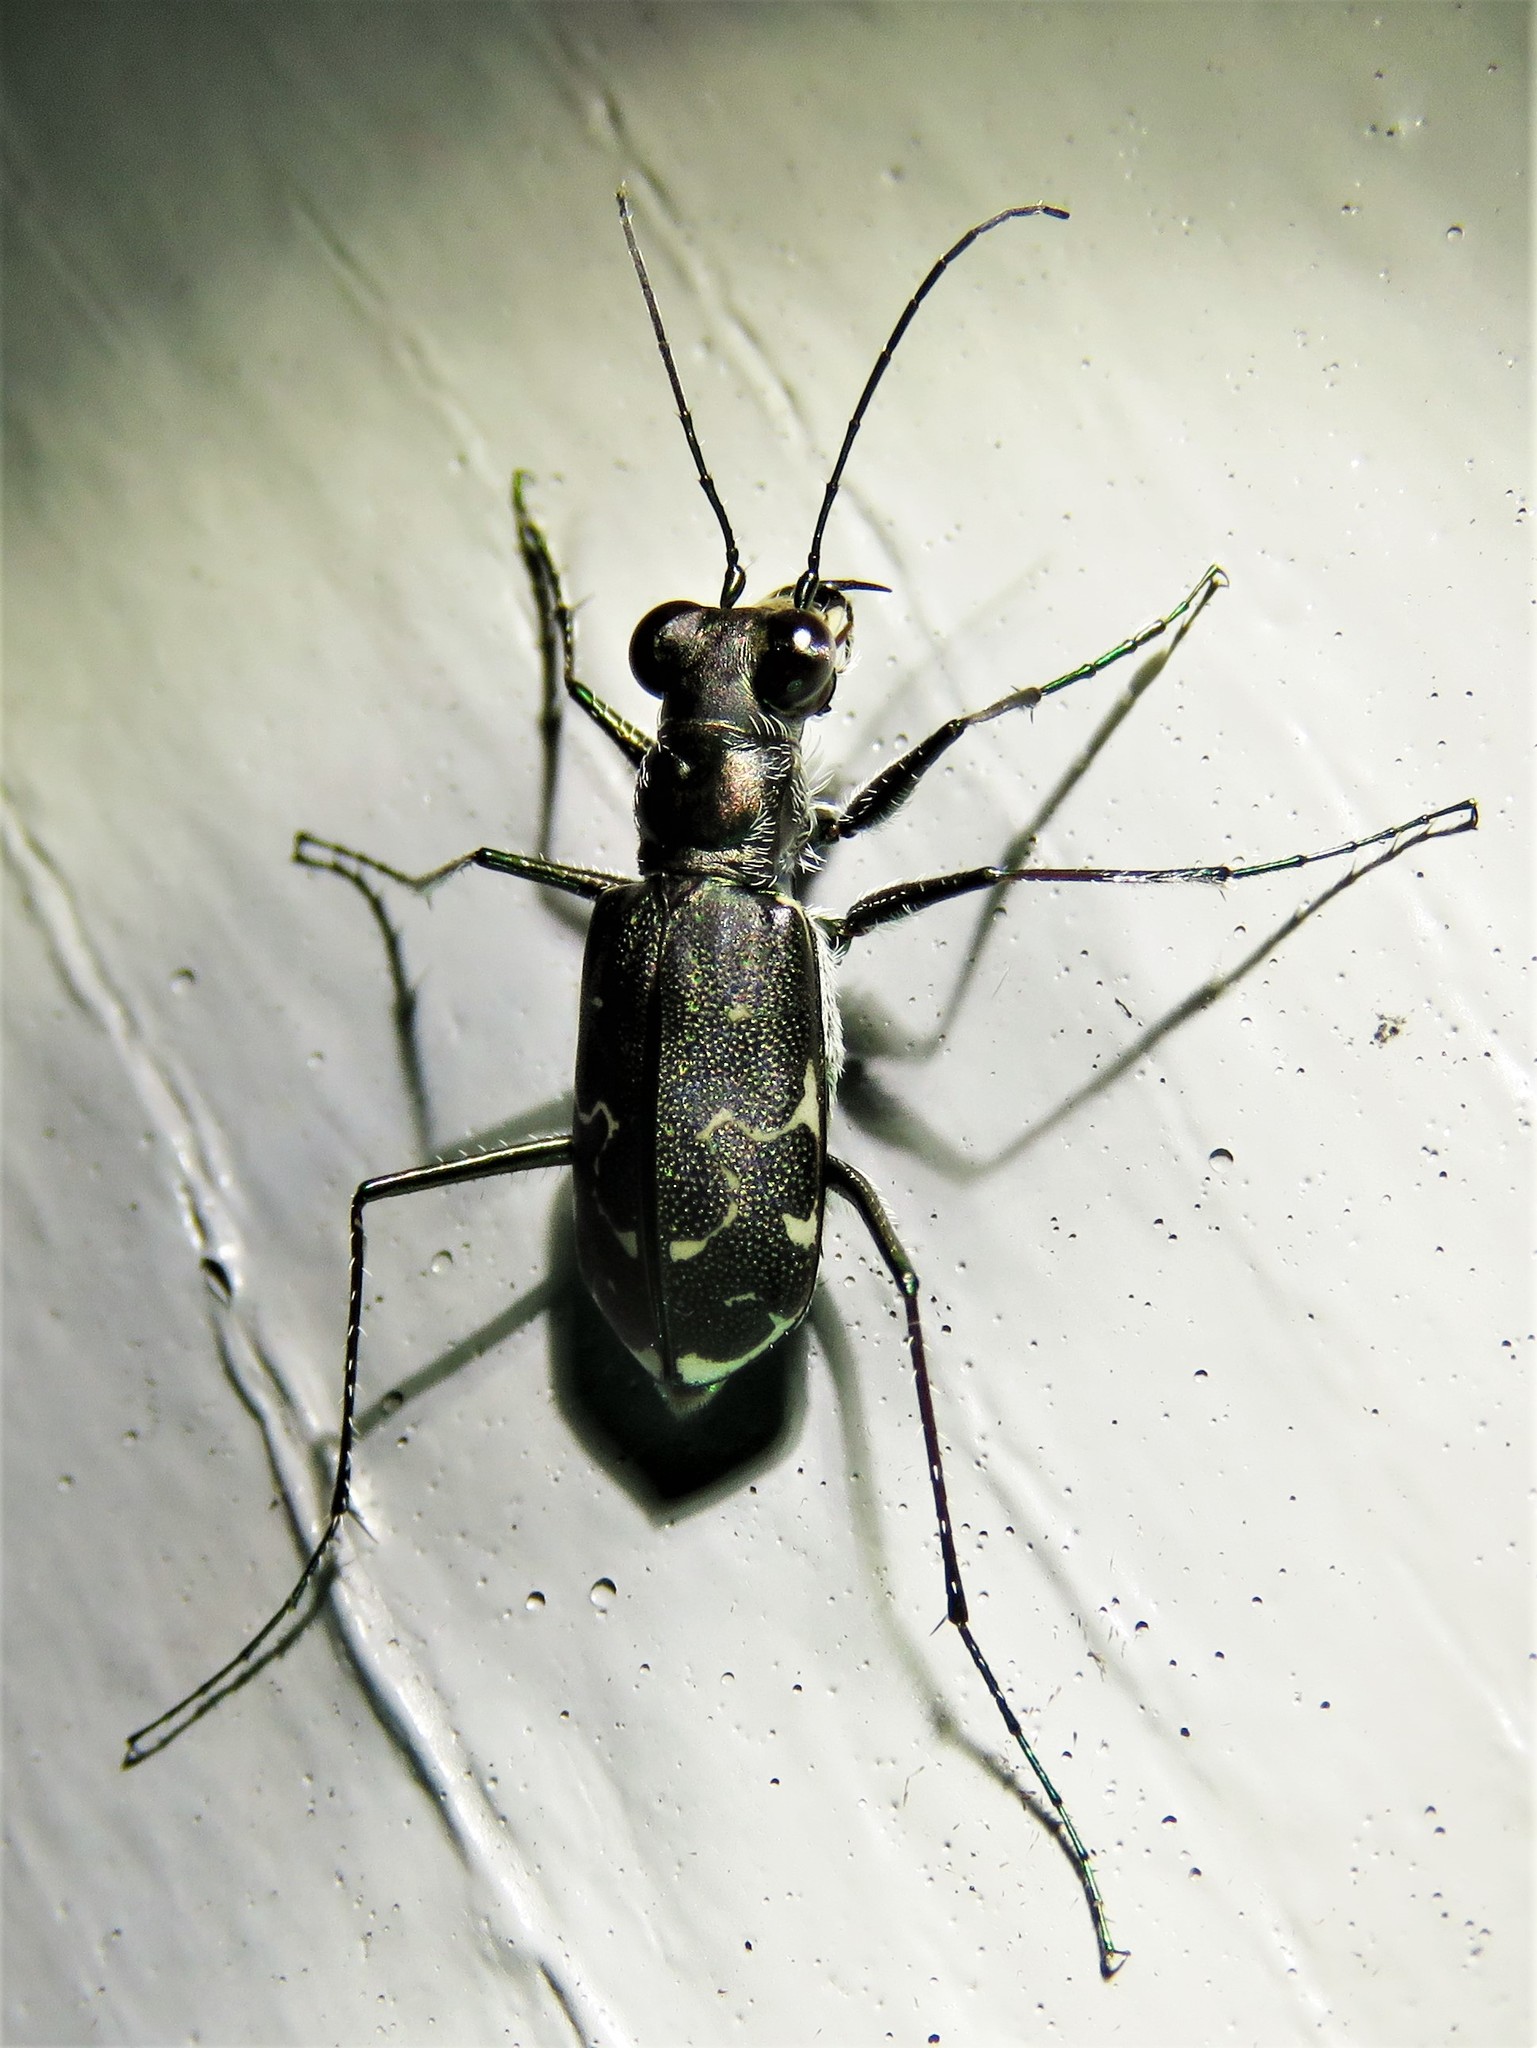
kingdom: Animalia
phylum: Arthropoda
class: Insecta
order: Coleoptera
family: Carabidae
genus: Cicindela
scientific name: Cicindela trifasciata
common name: Mudflat tiger beetle
